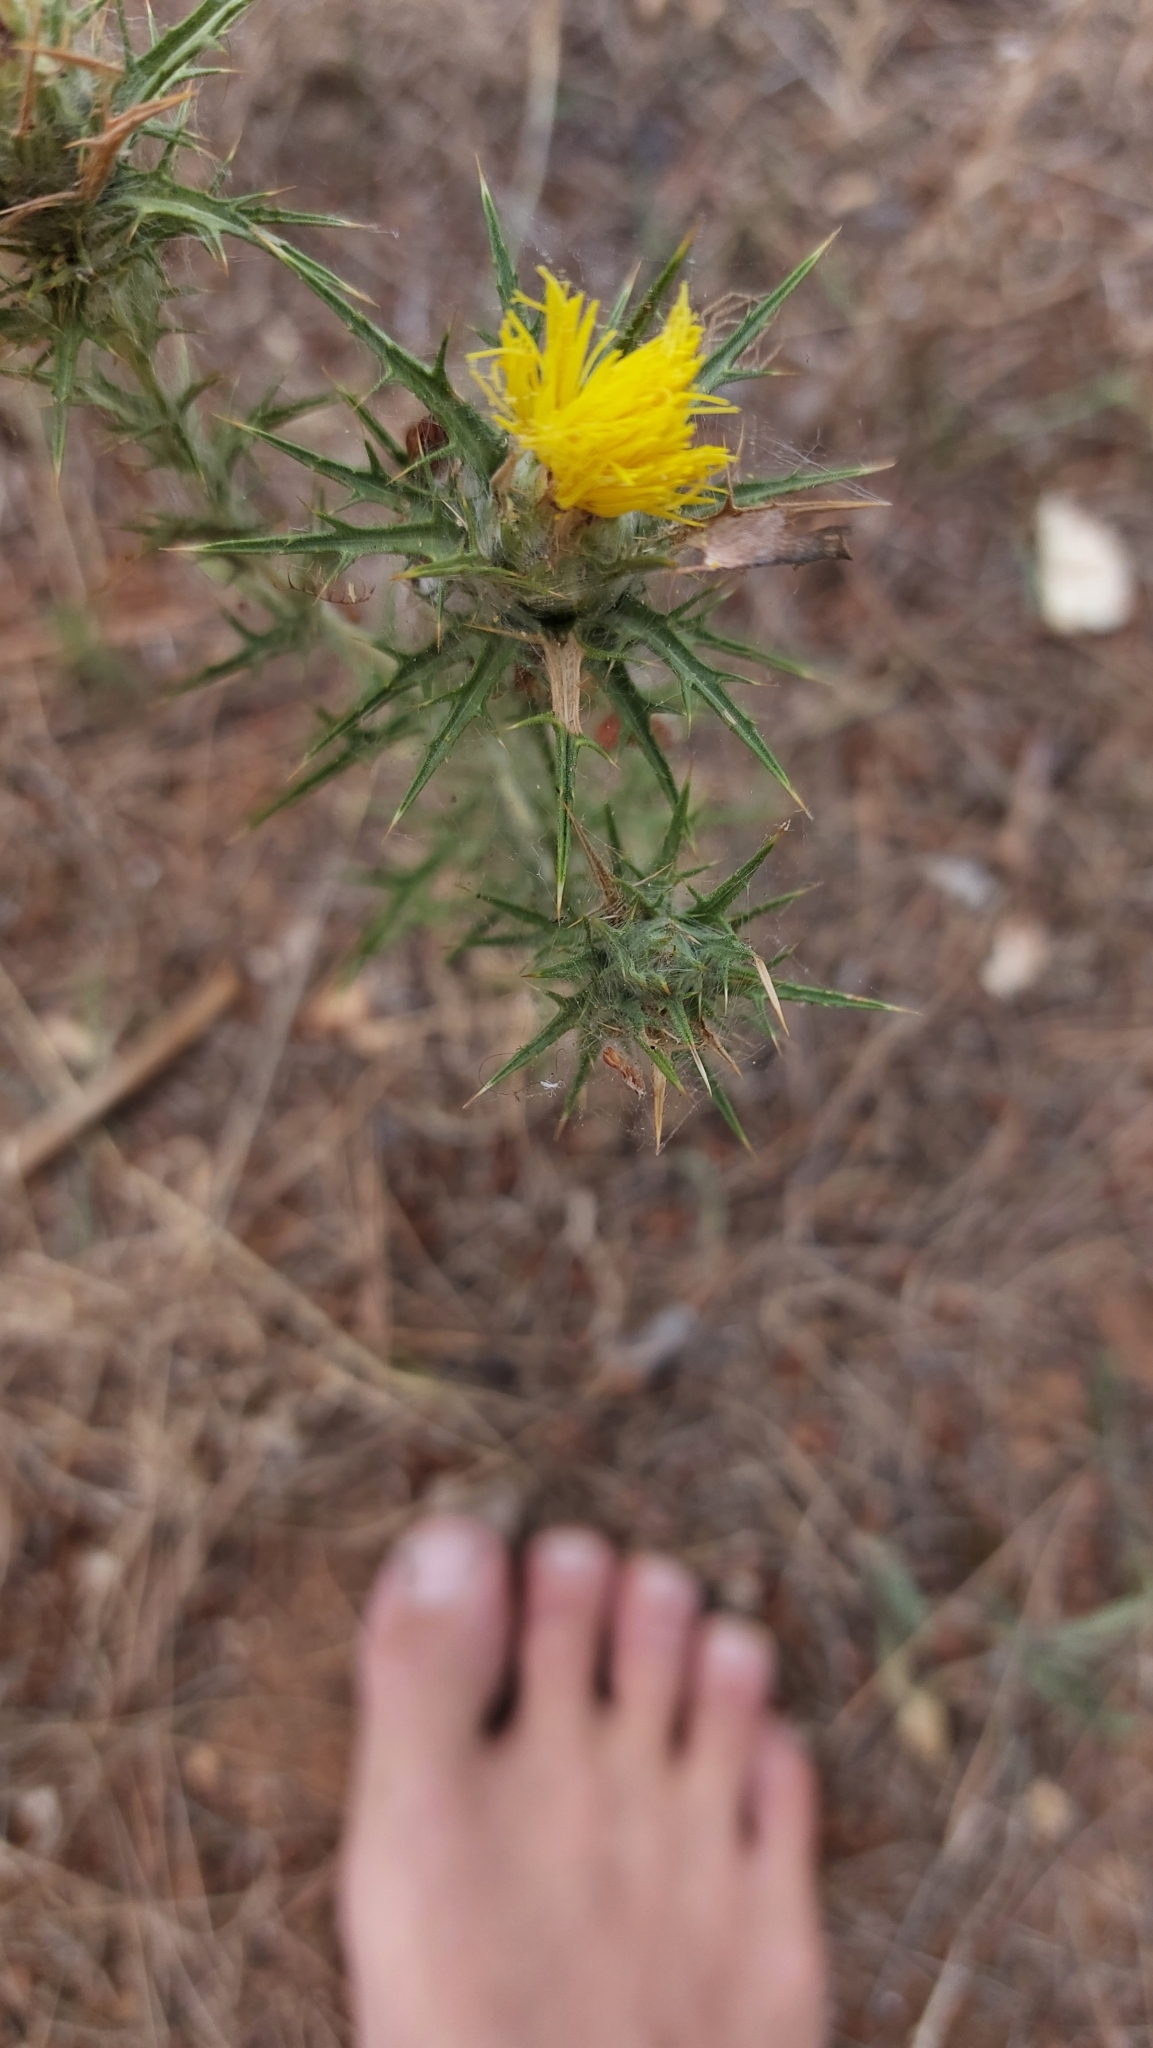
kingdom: Plantae
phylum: Tracheophyta
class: Magnoliopsida
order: Asterales
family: Asteraceae
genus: Carthamus
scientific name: Carthamus lanatus
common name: Downy safflower
